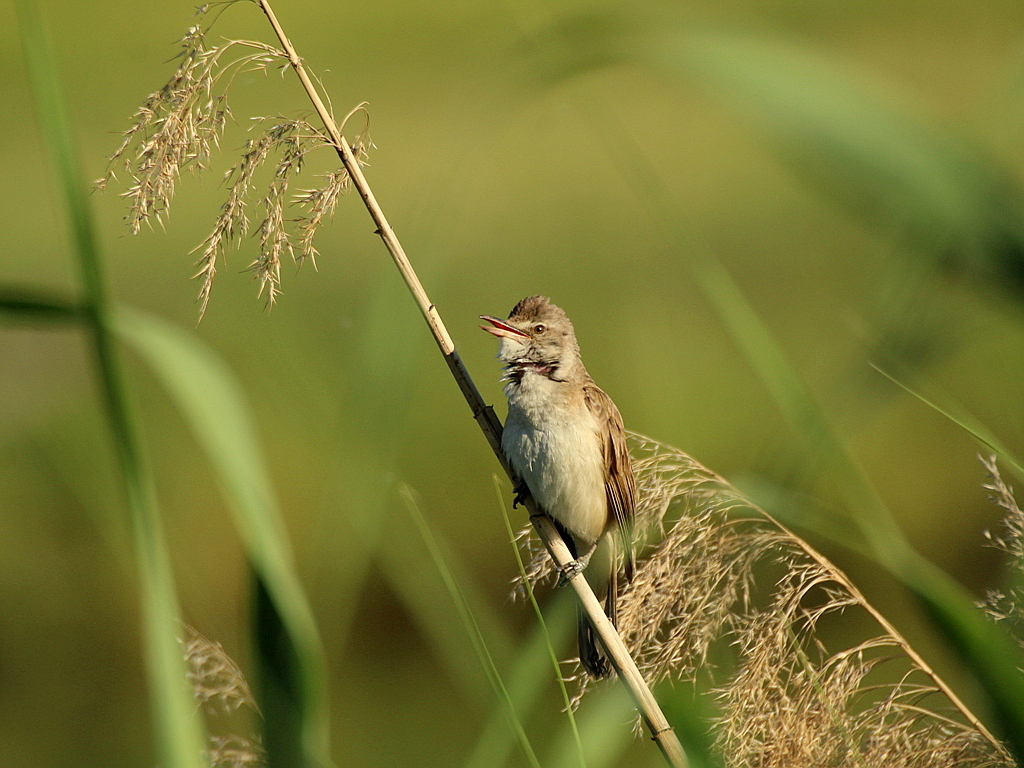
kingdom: Animalia
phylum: Chordata
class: Aves
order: Passeriformes
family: Acrocephalidae
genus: Acrocephalus
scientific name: Acrocephalus arundinaceus
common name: Great reed warbler
